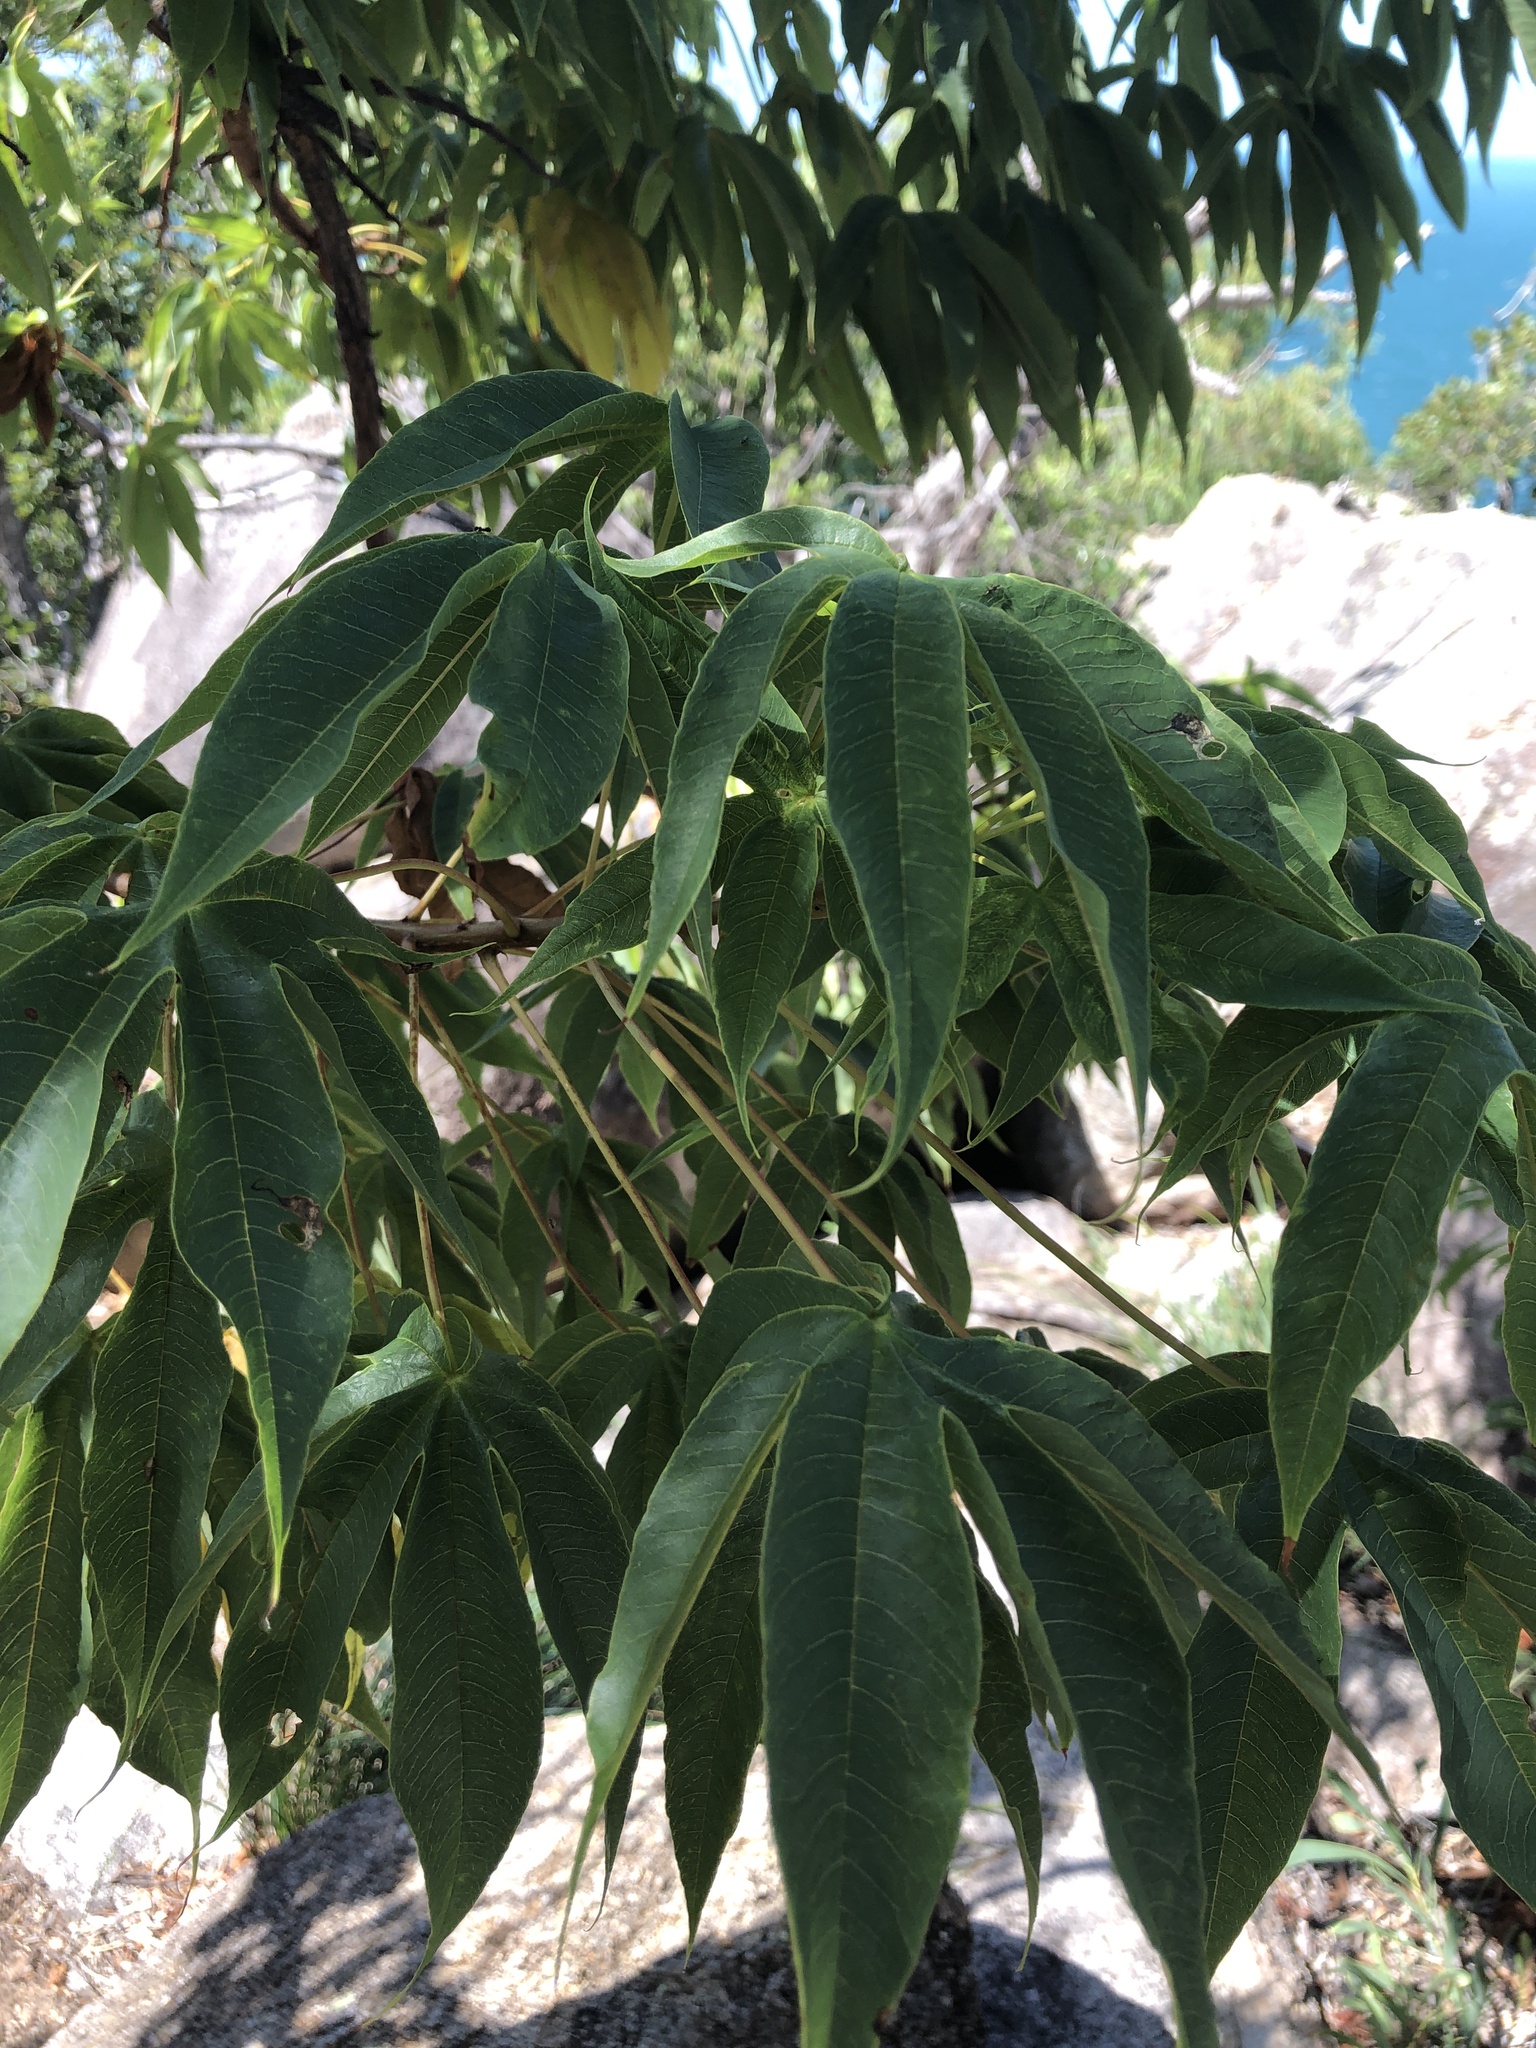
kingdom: Plantae
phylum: Tracheophyta
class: Magnoliopsida
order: Malvales
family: Cochlospermaceae
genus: Cochlospermum
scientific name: Cochlospermum gillivraei
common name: Cottontree
